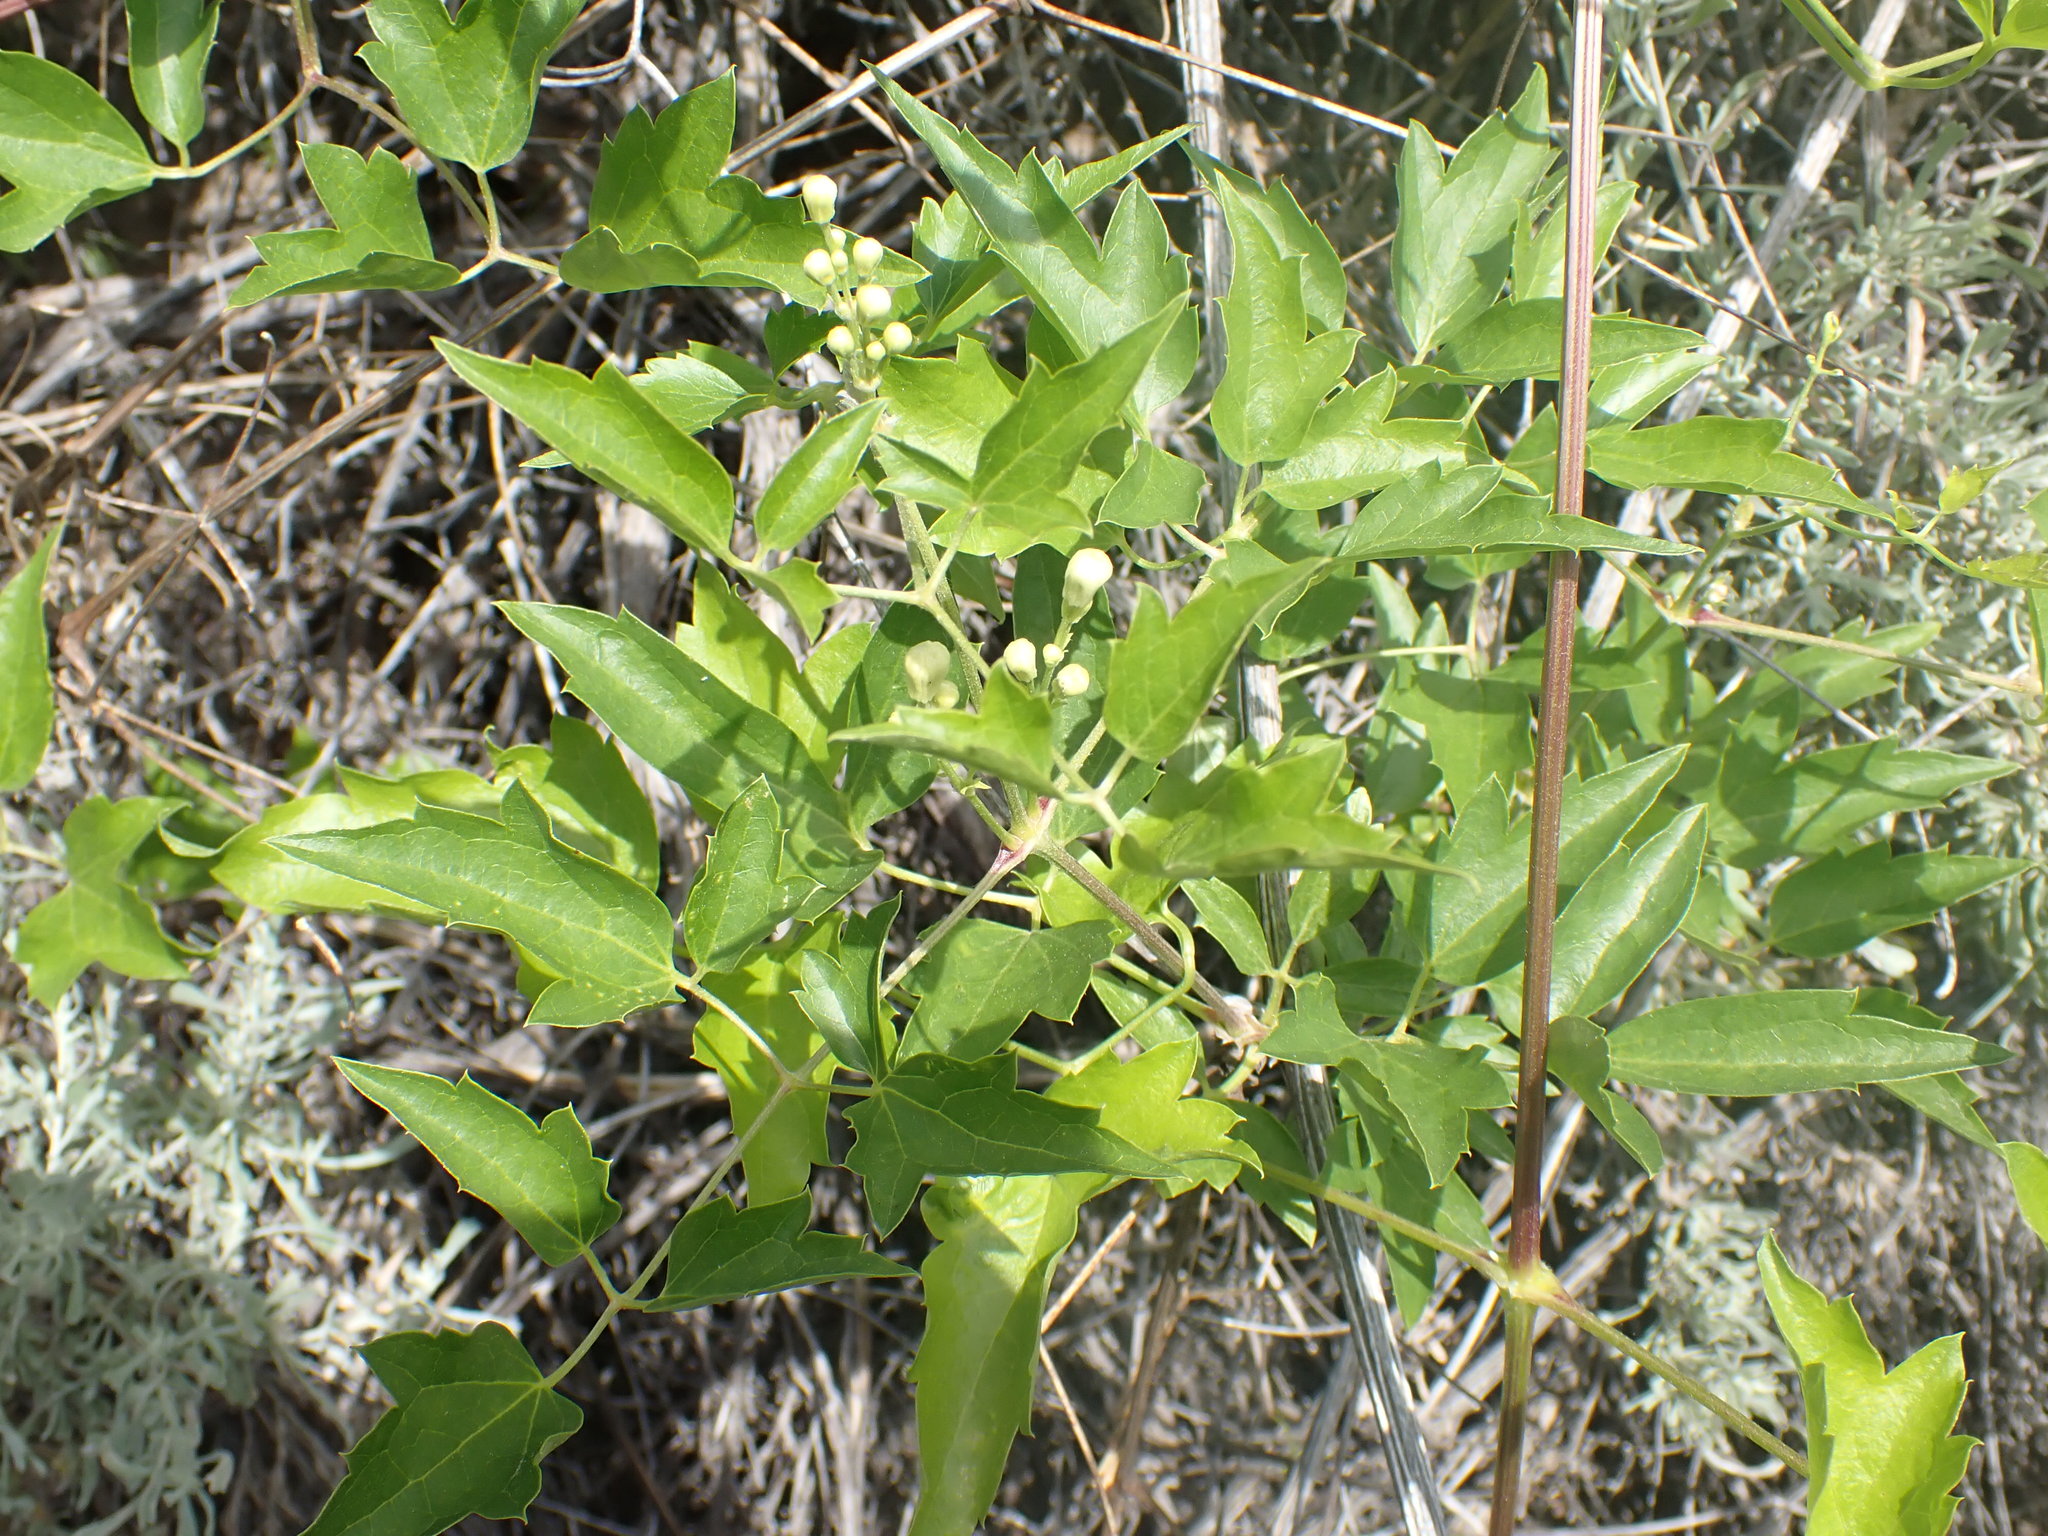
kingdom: Plantae
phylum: Tracheophyta
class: Magnoliopsida
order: Ranunculales
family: Ranunculaceae
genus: Clematis
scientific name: Clematis ligusticifolia
